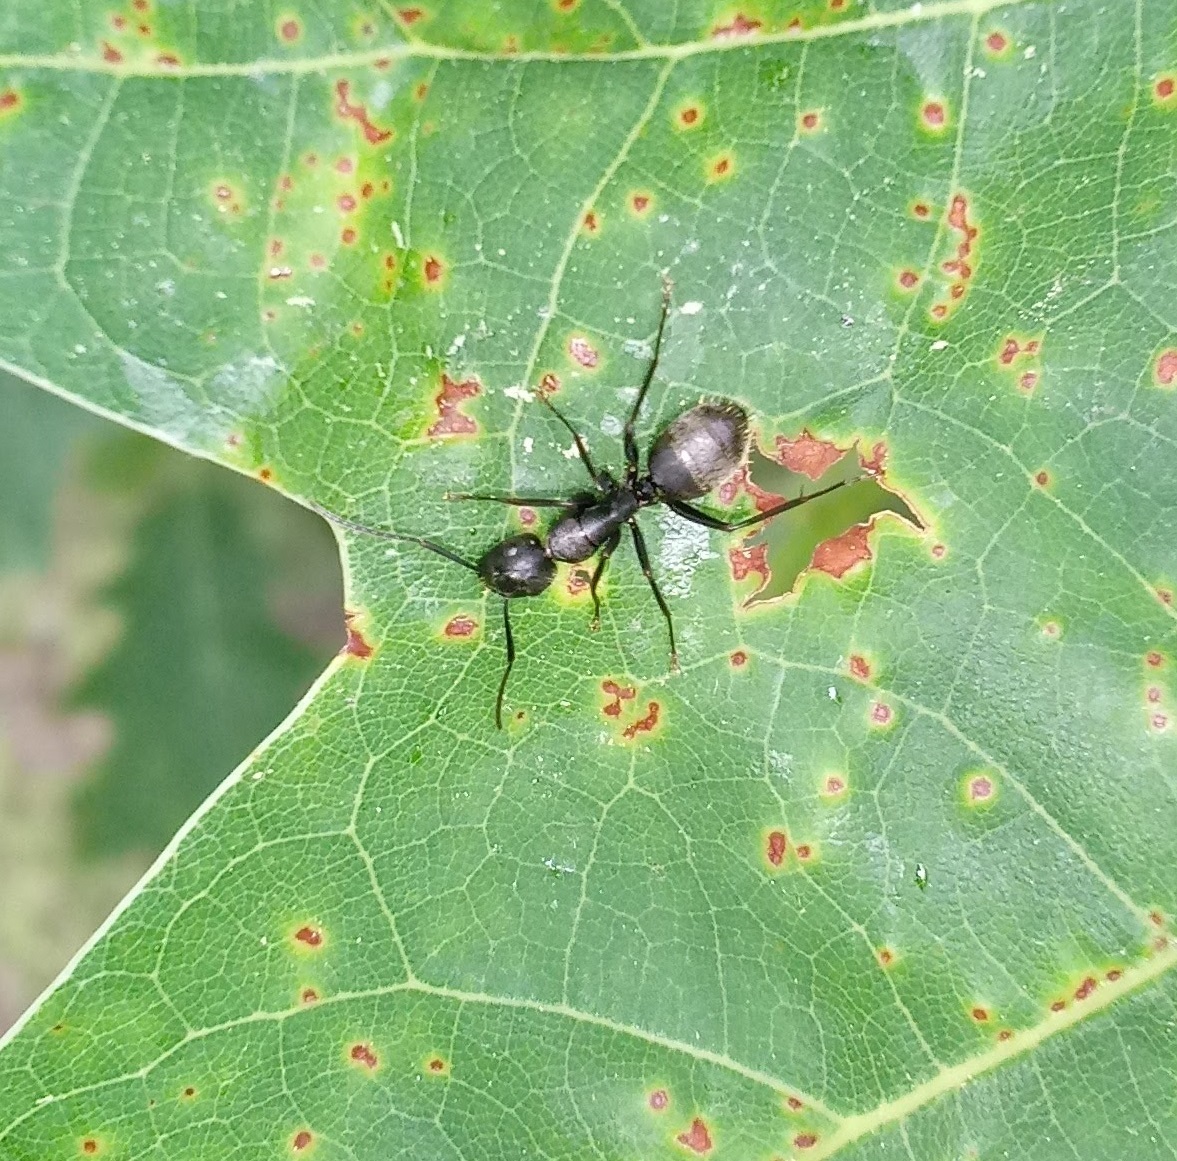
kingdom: Animalia
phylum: Arthropoda
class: Insecta
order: Hymenoptera
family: Formicidae
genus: Camponotus
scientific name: Camponotus pennsylvanicus
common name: Black carpenter ant
